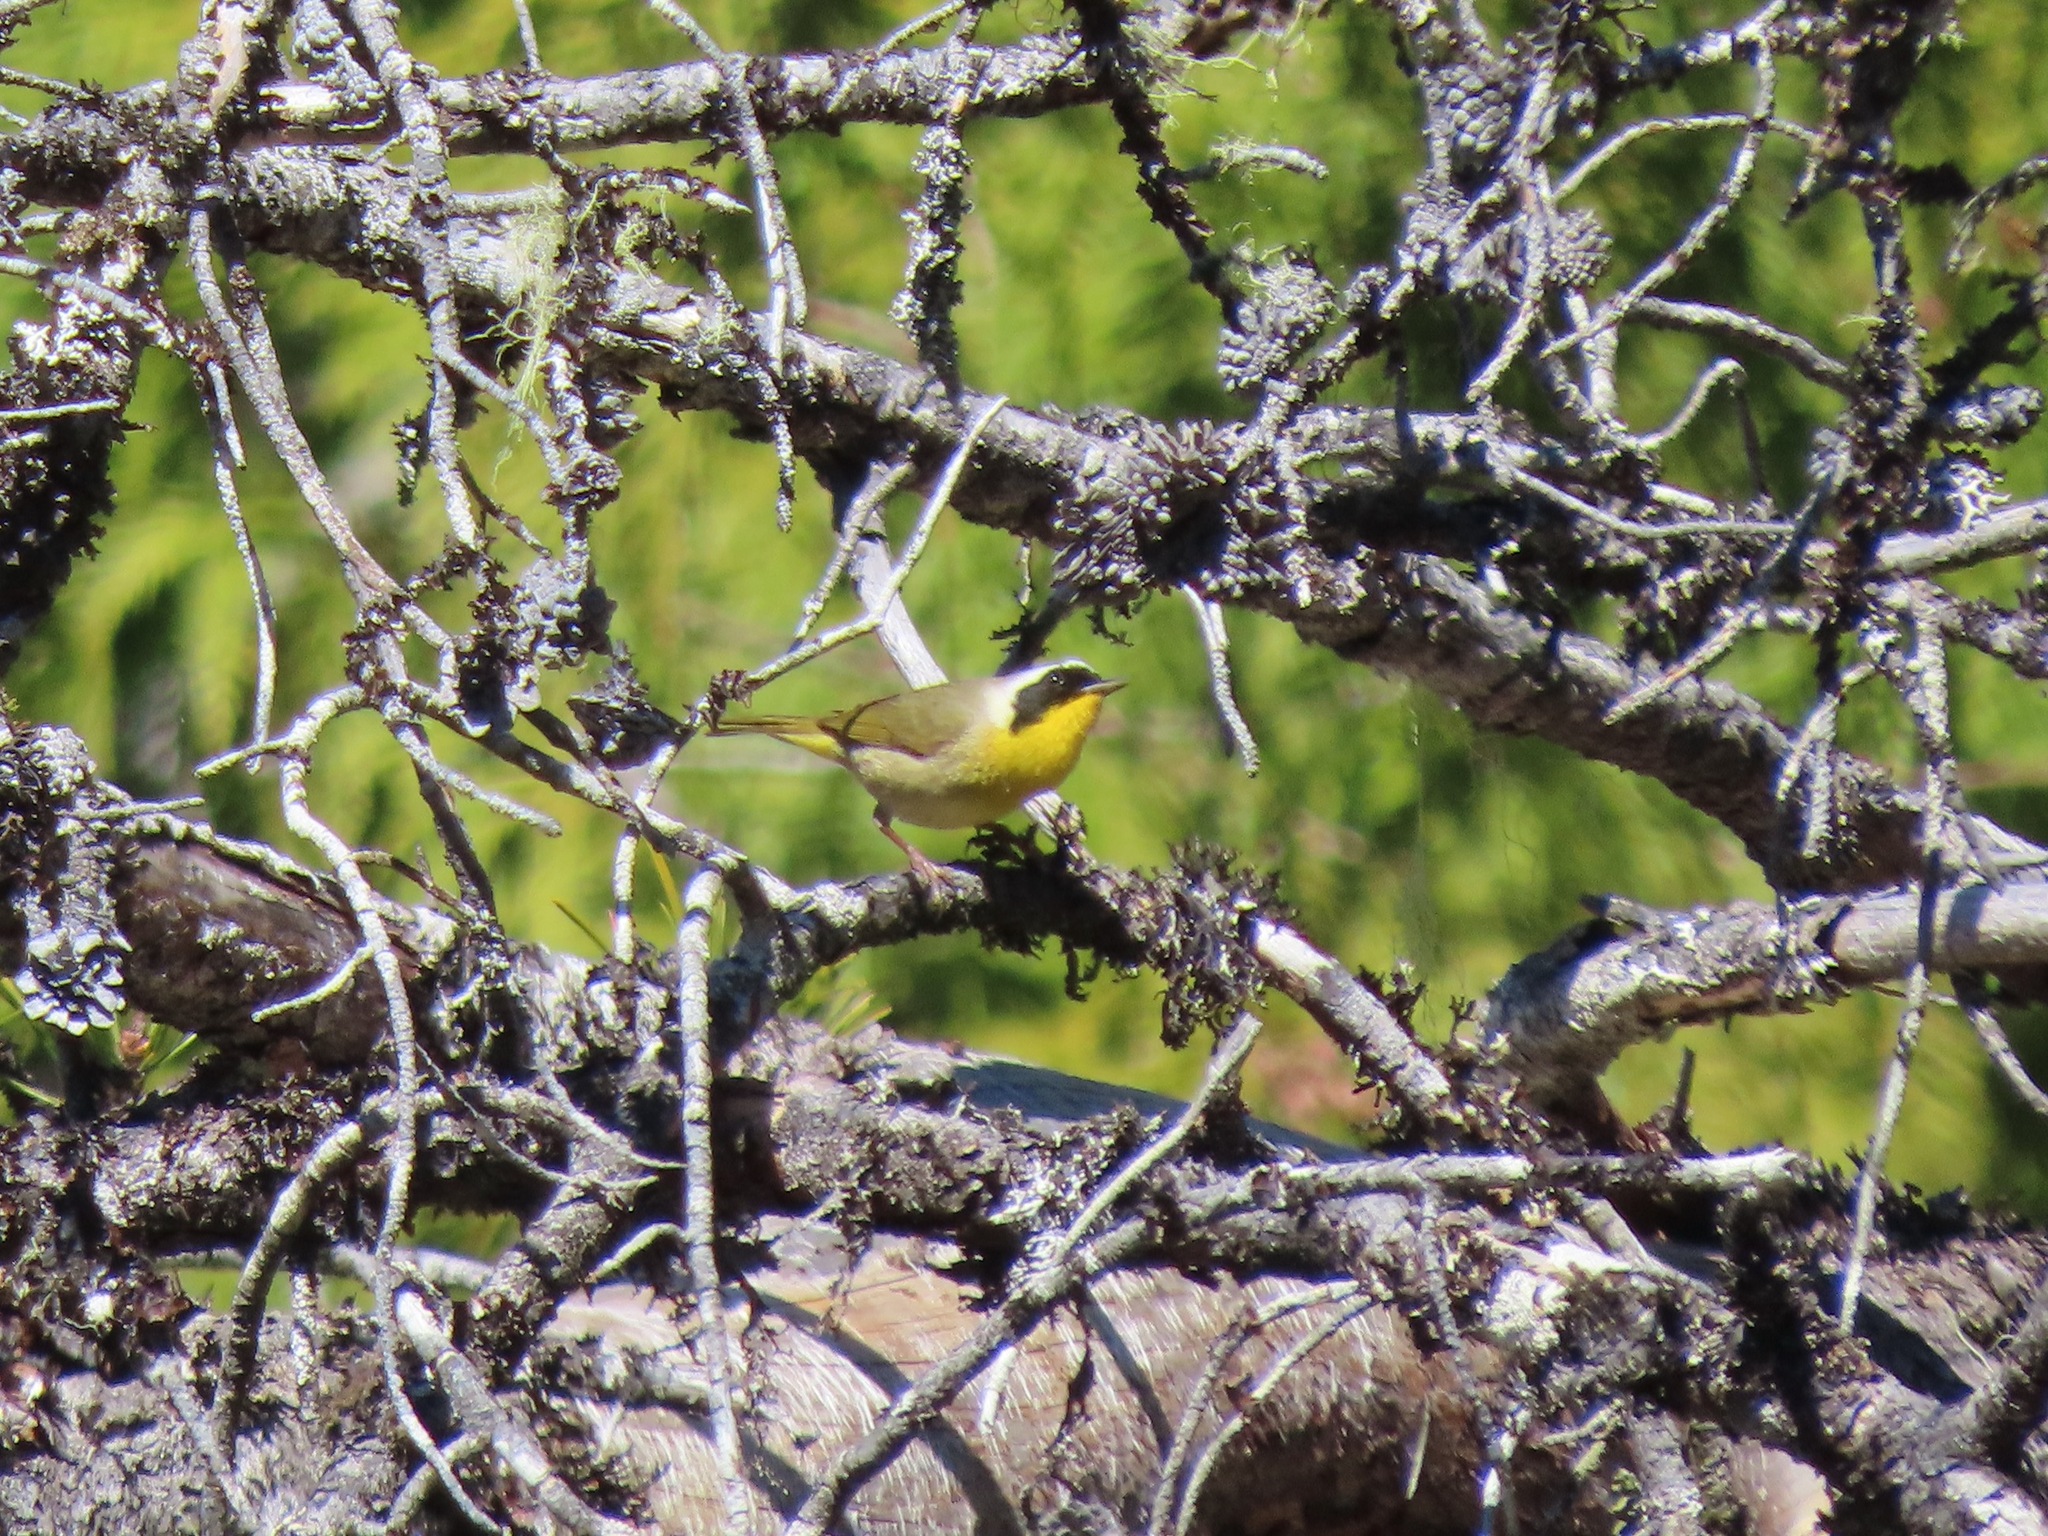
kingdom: Animalia
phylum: Chordata
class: Aves
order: Passeriformes
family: Parulidae
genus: Geothlypis
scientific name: Geothlypis trichas
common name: Common yellowthroat
